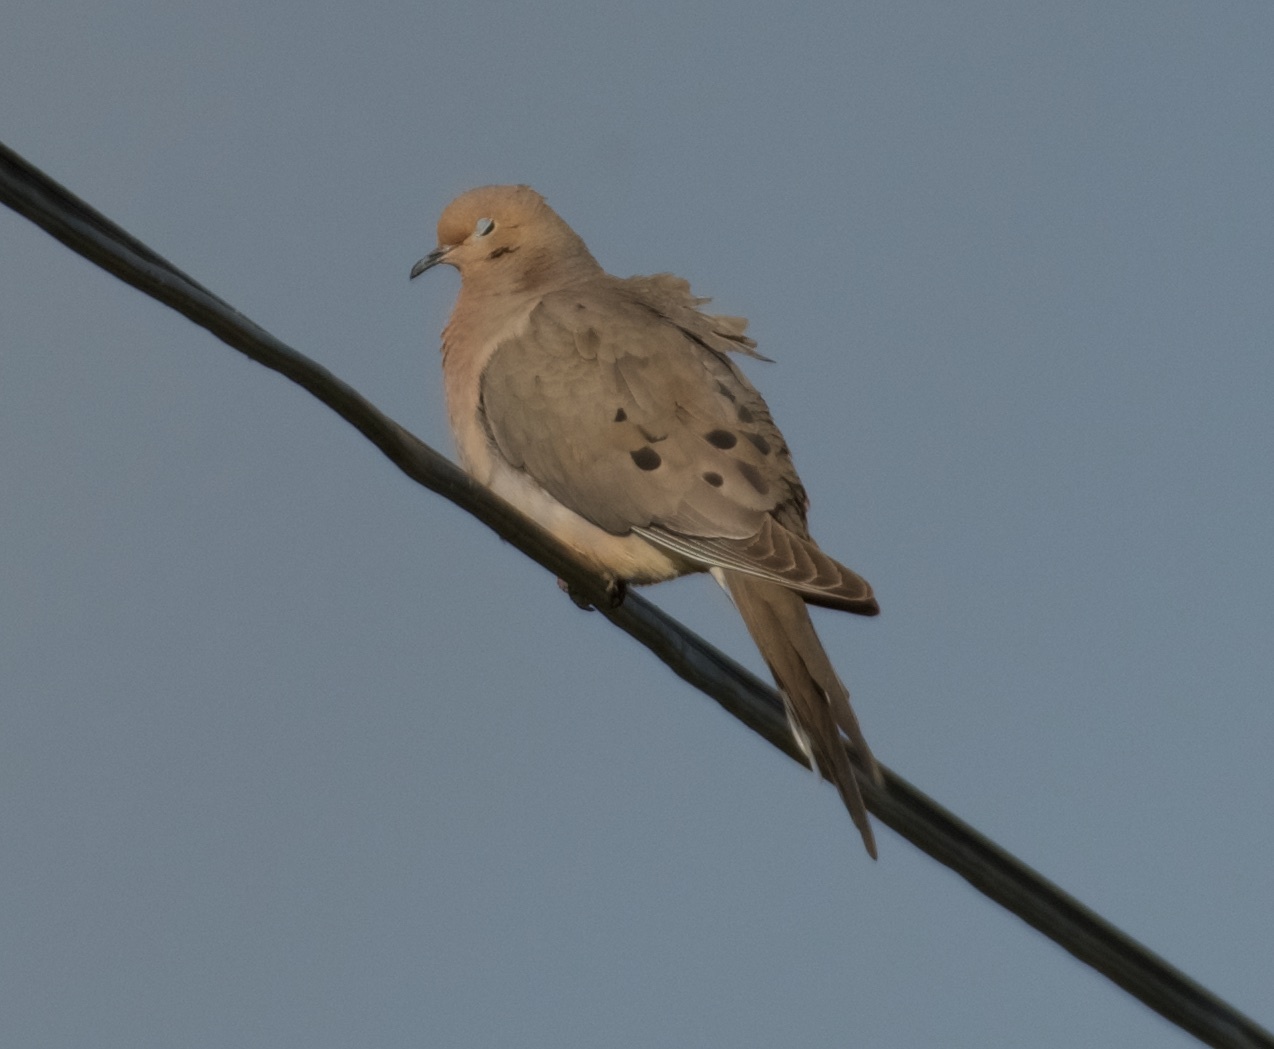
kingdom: Animalia
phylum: Chordata
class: Aves
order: Columbiformes
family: Columbidae
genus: Zenaida
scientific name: Zenaida macroura
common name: Mourning dove
